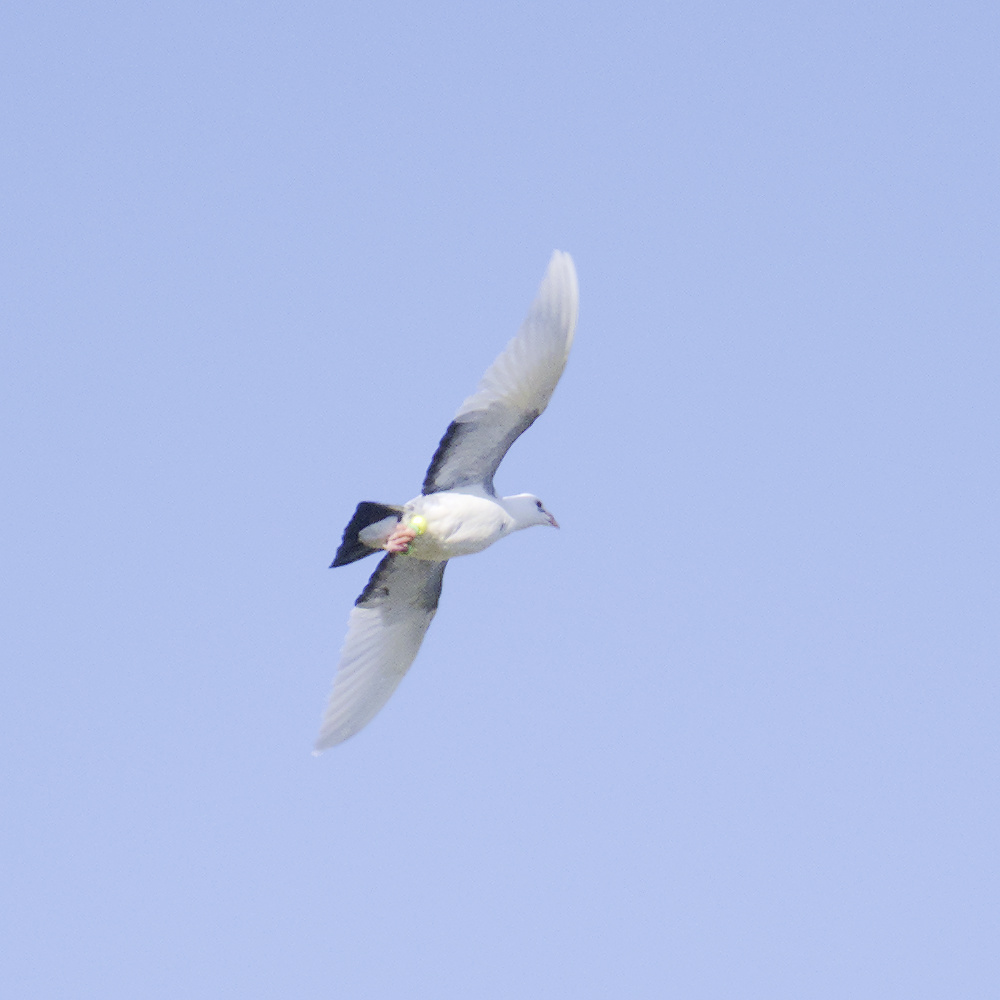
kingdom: Animalia
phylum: Chordata
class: Aves
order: Columbiformes
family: Columbidae
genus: Columba
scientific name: Columba livia
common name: Rock pigeon
